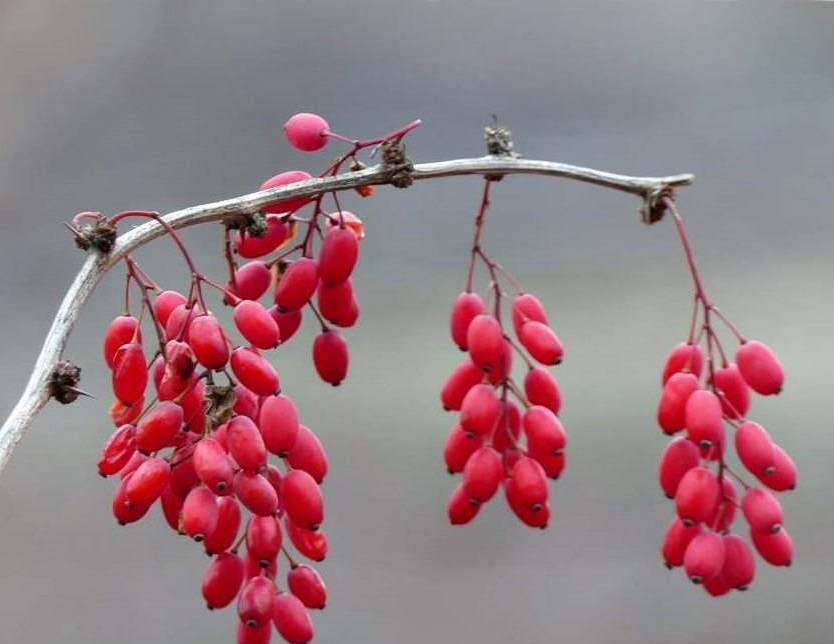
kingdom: Plantae
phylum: Tracheophyta
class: Magnoliopsida
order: Ranunculales
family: Berberidaceae
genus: Berberis
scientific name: Berberis vulgaris
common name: Barberry
